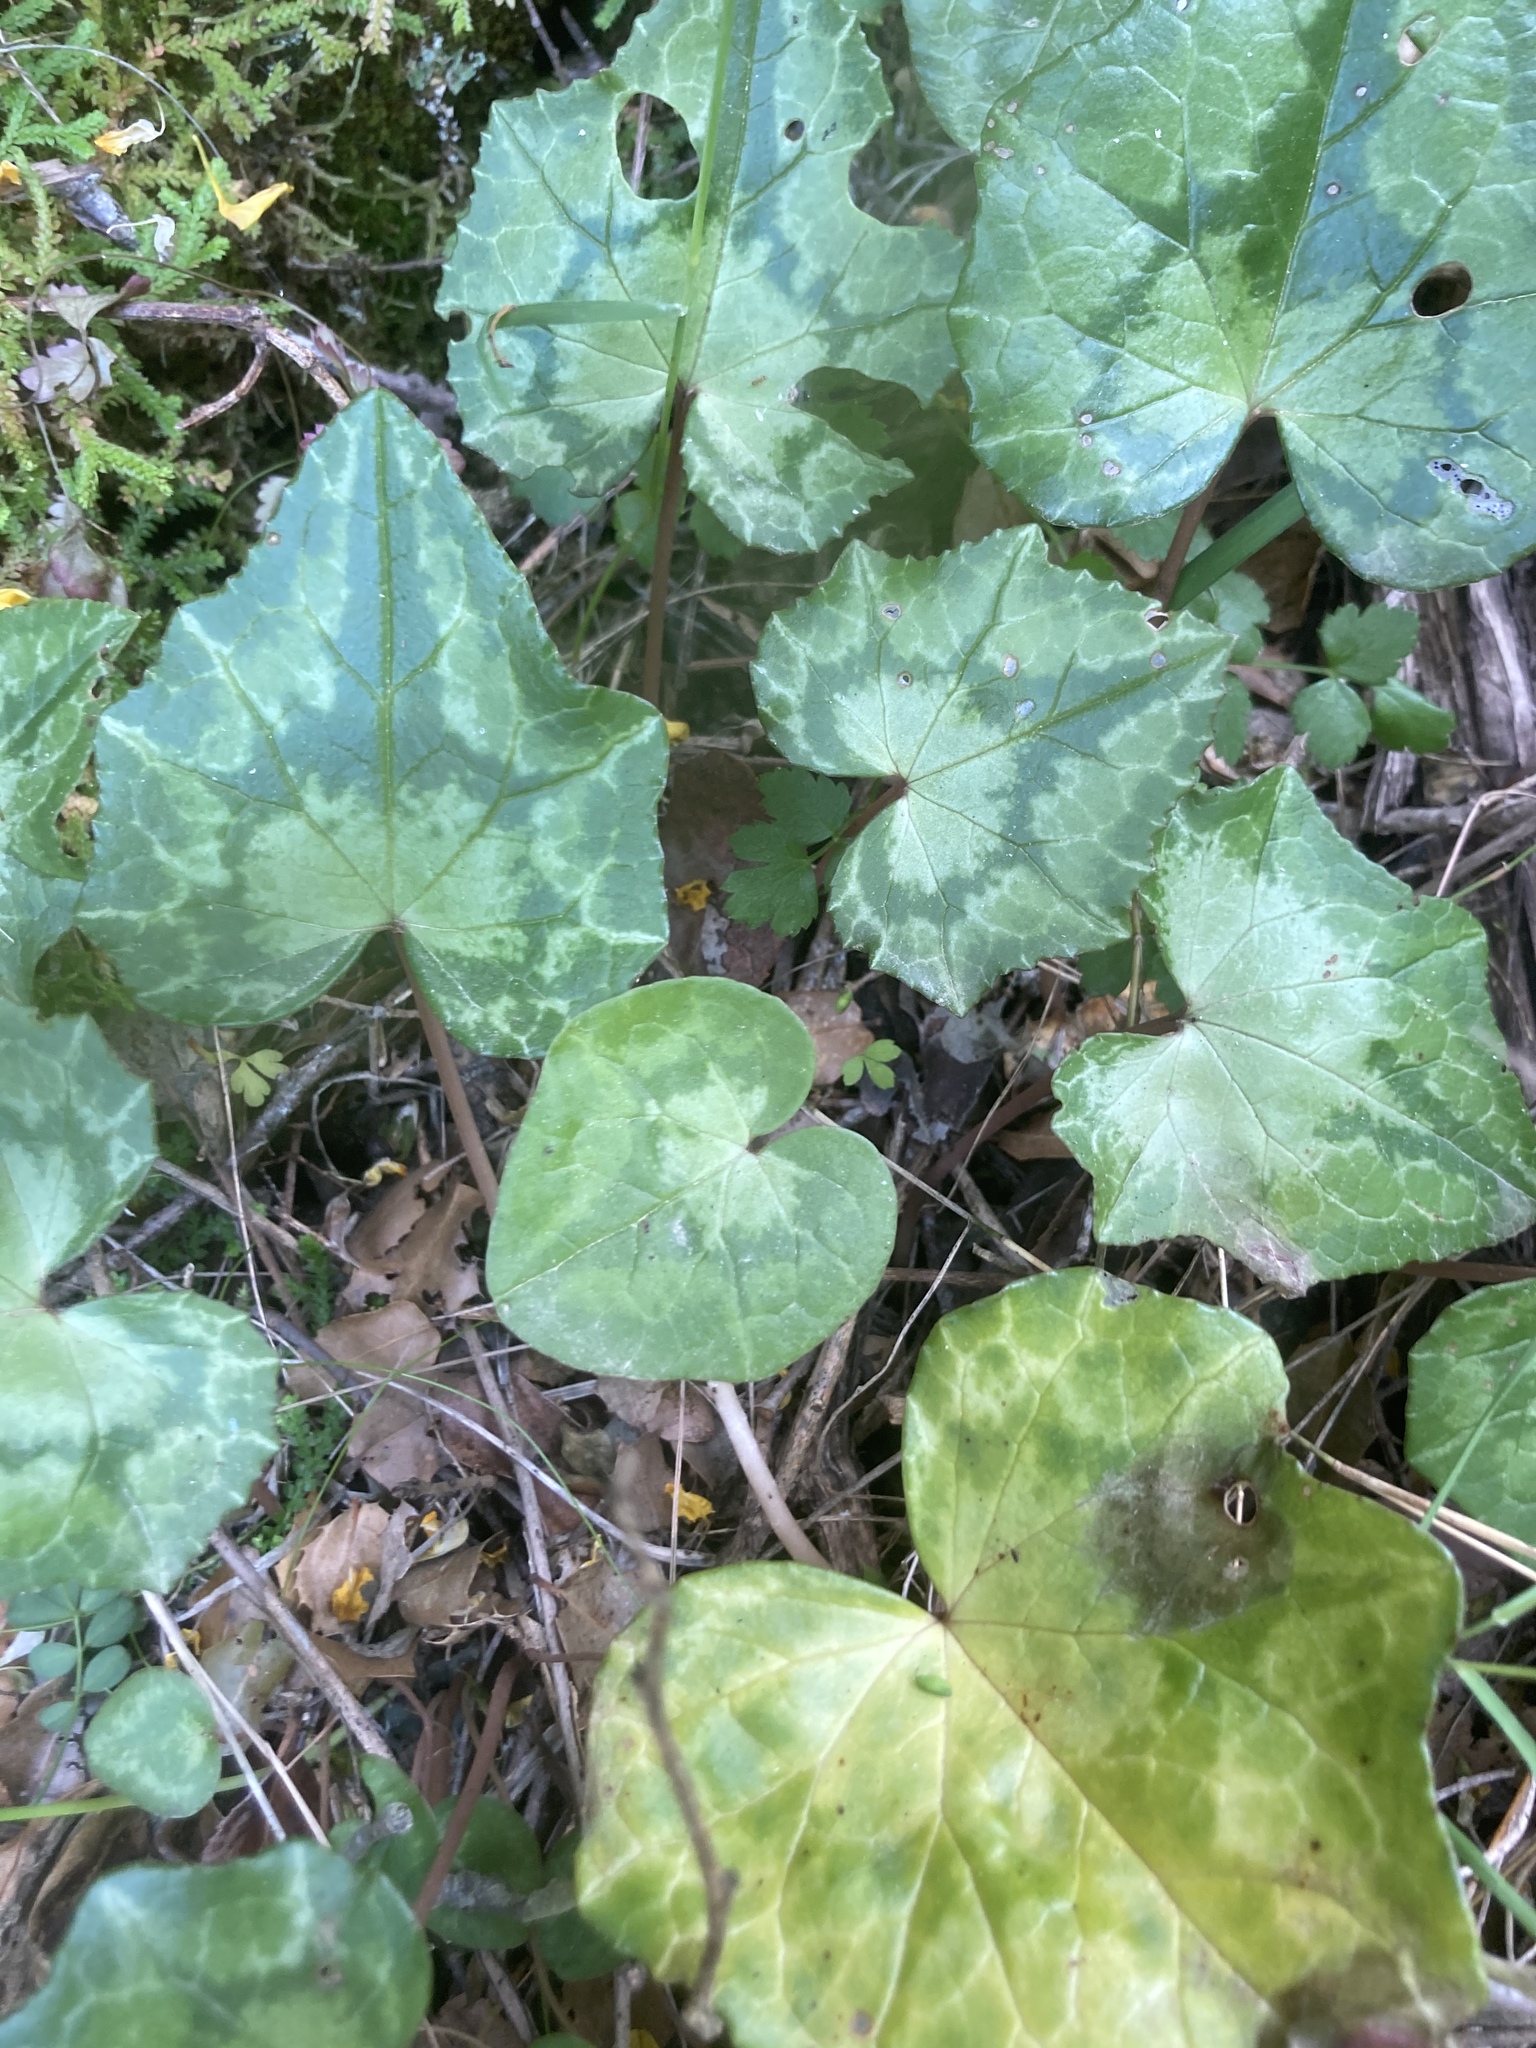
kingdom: Plantae
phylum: Tracheophyta
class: Lycopodiopsida
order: Selaginellales
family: Selaginellaceae
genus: Selaginella
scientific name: Selaginella denticulata
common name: Toothed-leaved clubmoss
